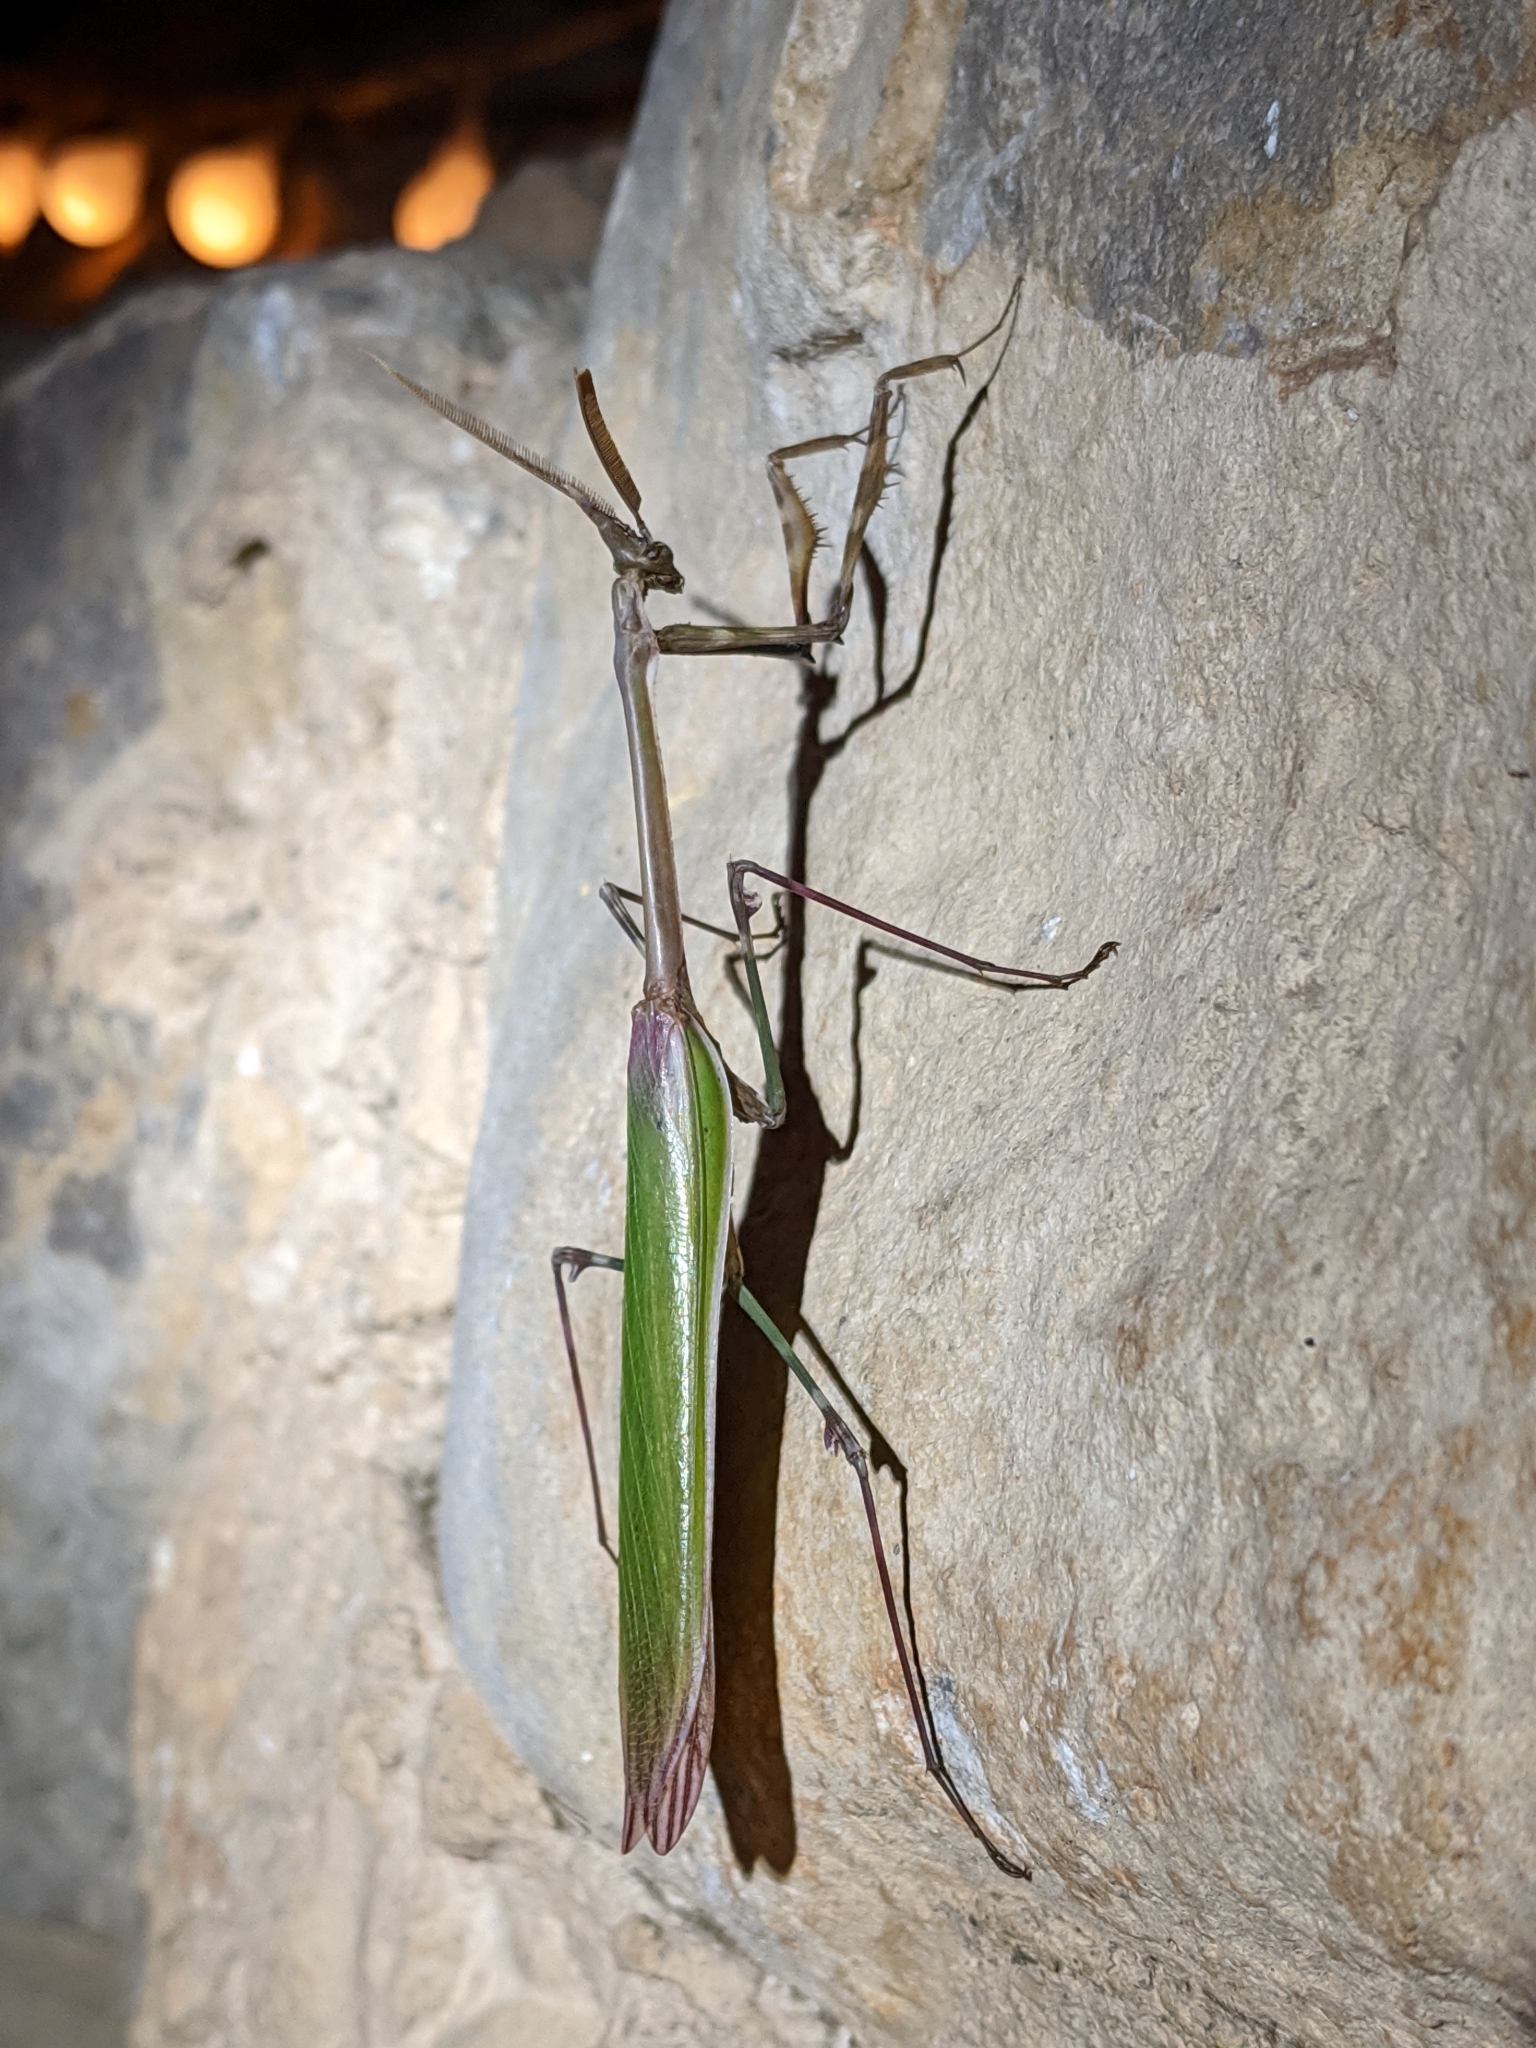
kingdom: Animalia
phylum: Arthropoda
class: Insecta
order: Mantodea
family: Empusidae
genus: Empusa
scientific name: Empusa pennata
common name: Conehead mantis
